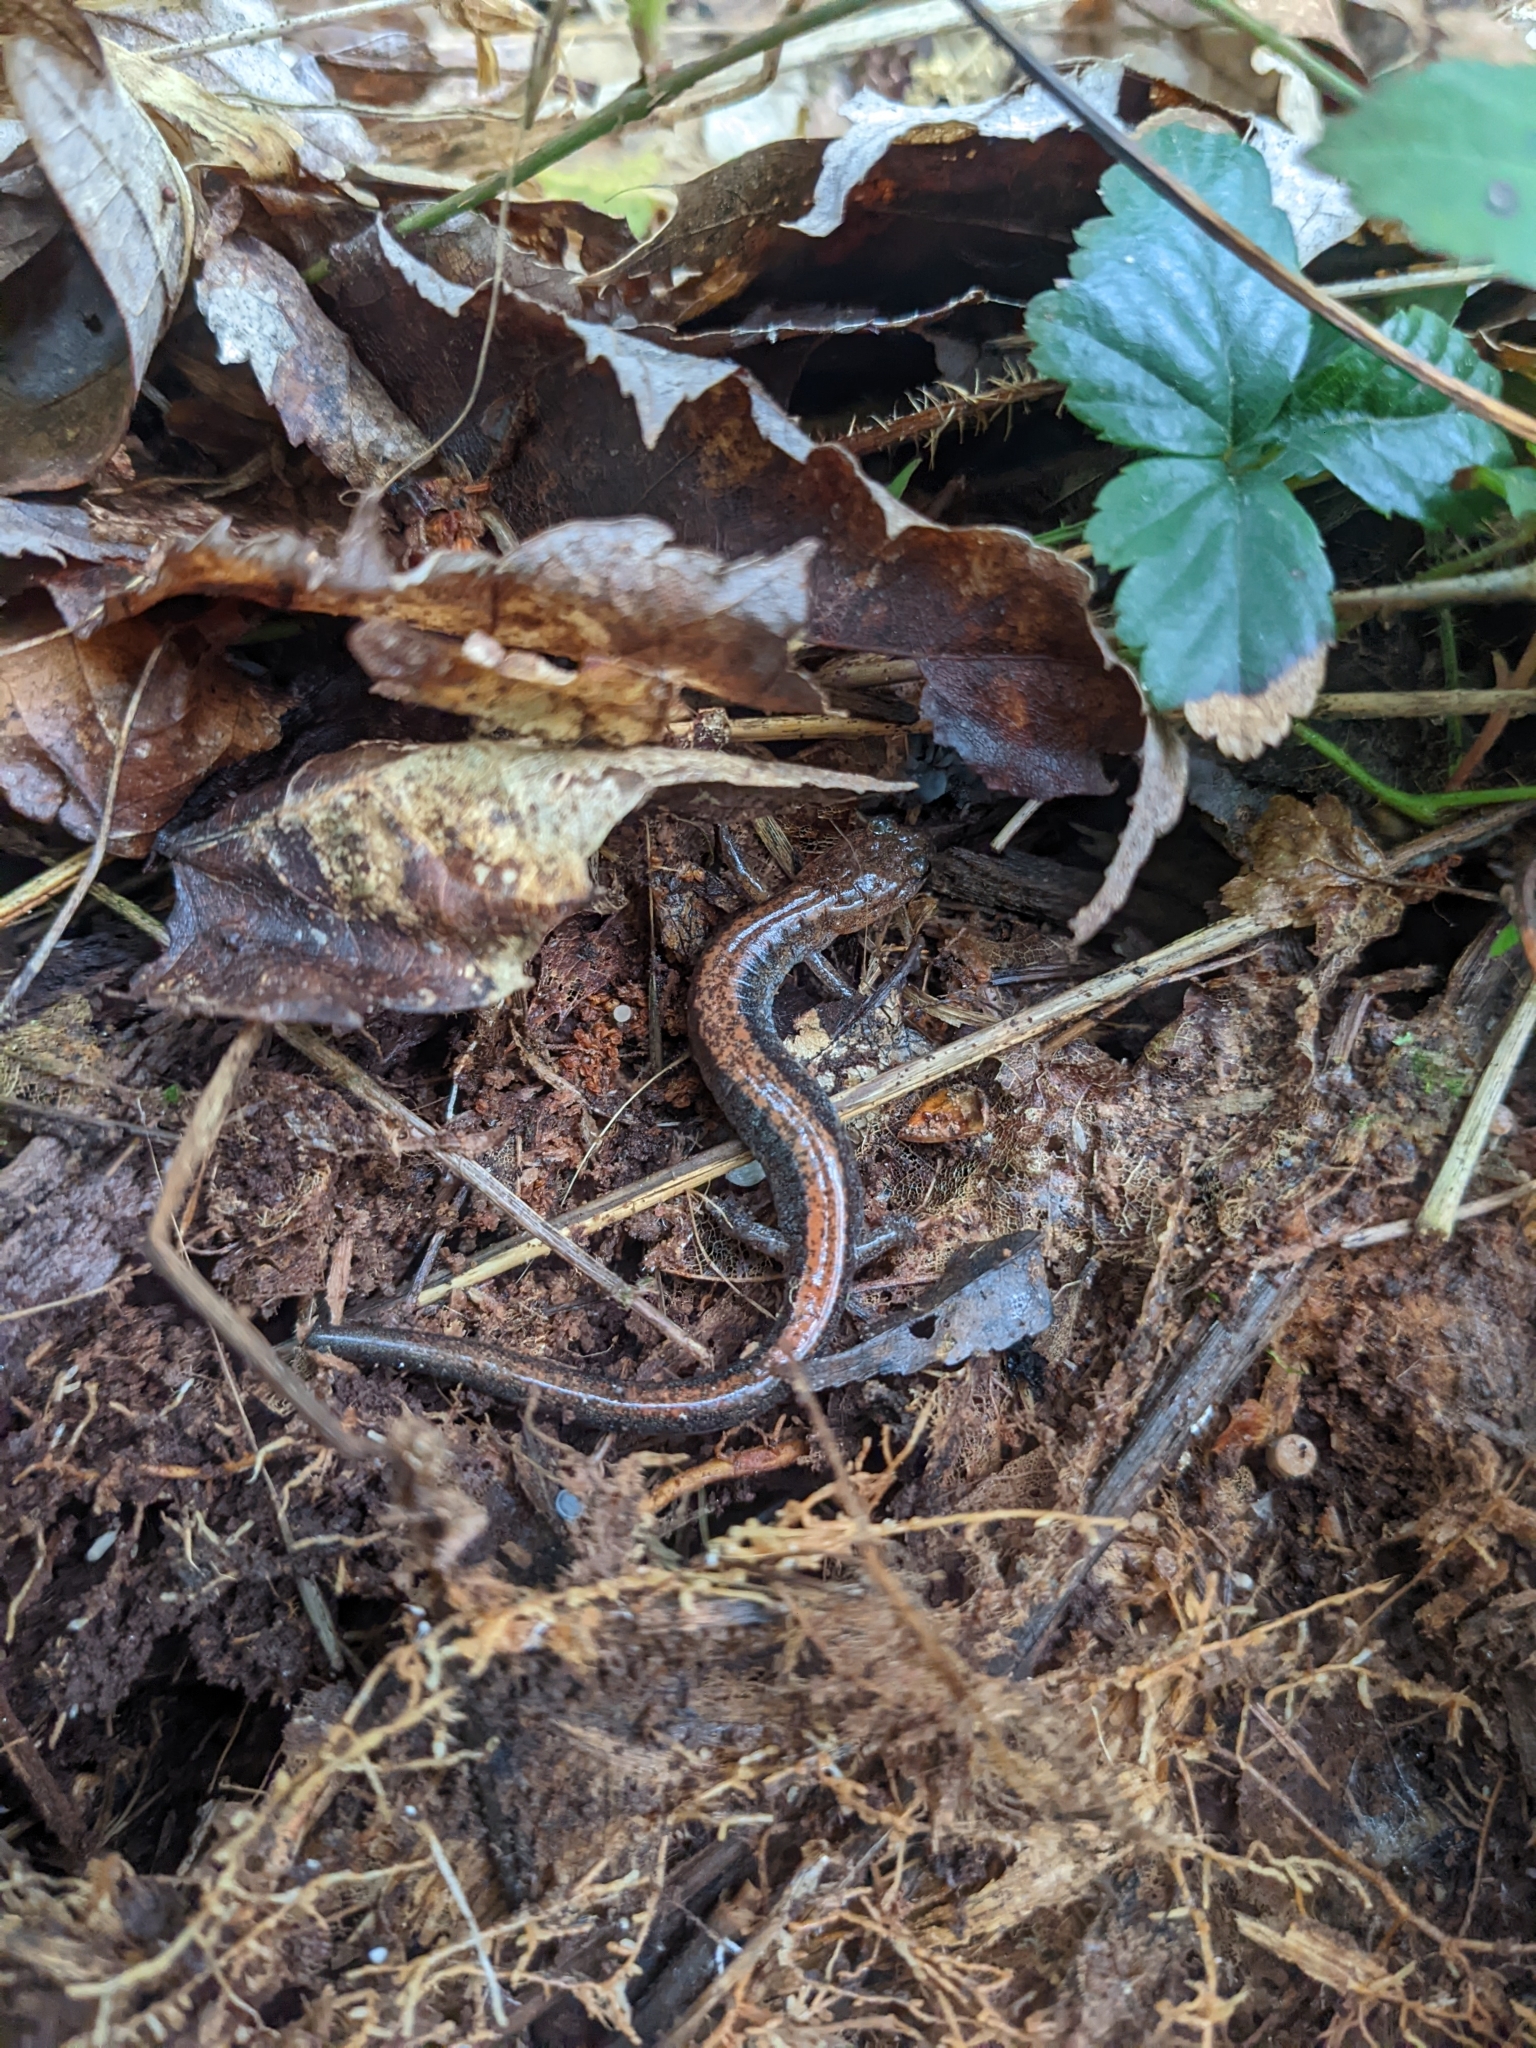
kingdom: Animalia
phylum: Chordata
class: Amphibia
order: Caudata
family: Plethodontidae
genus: Plethodon
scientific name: Plethodon cinereus
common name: Redback salamander
